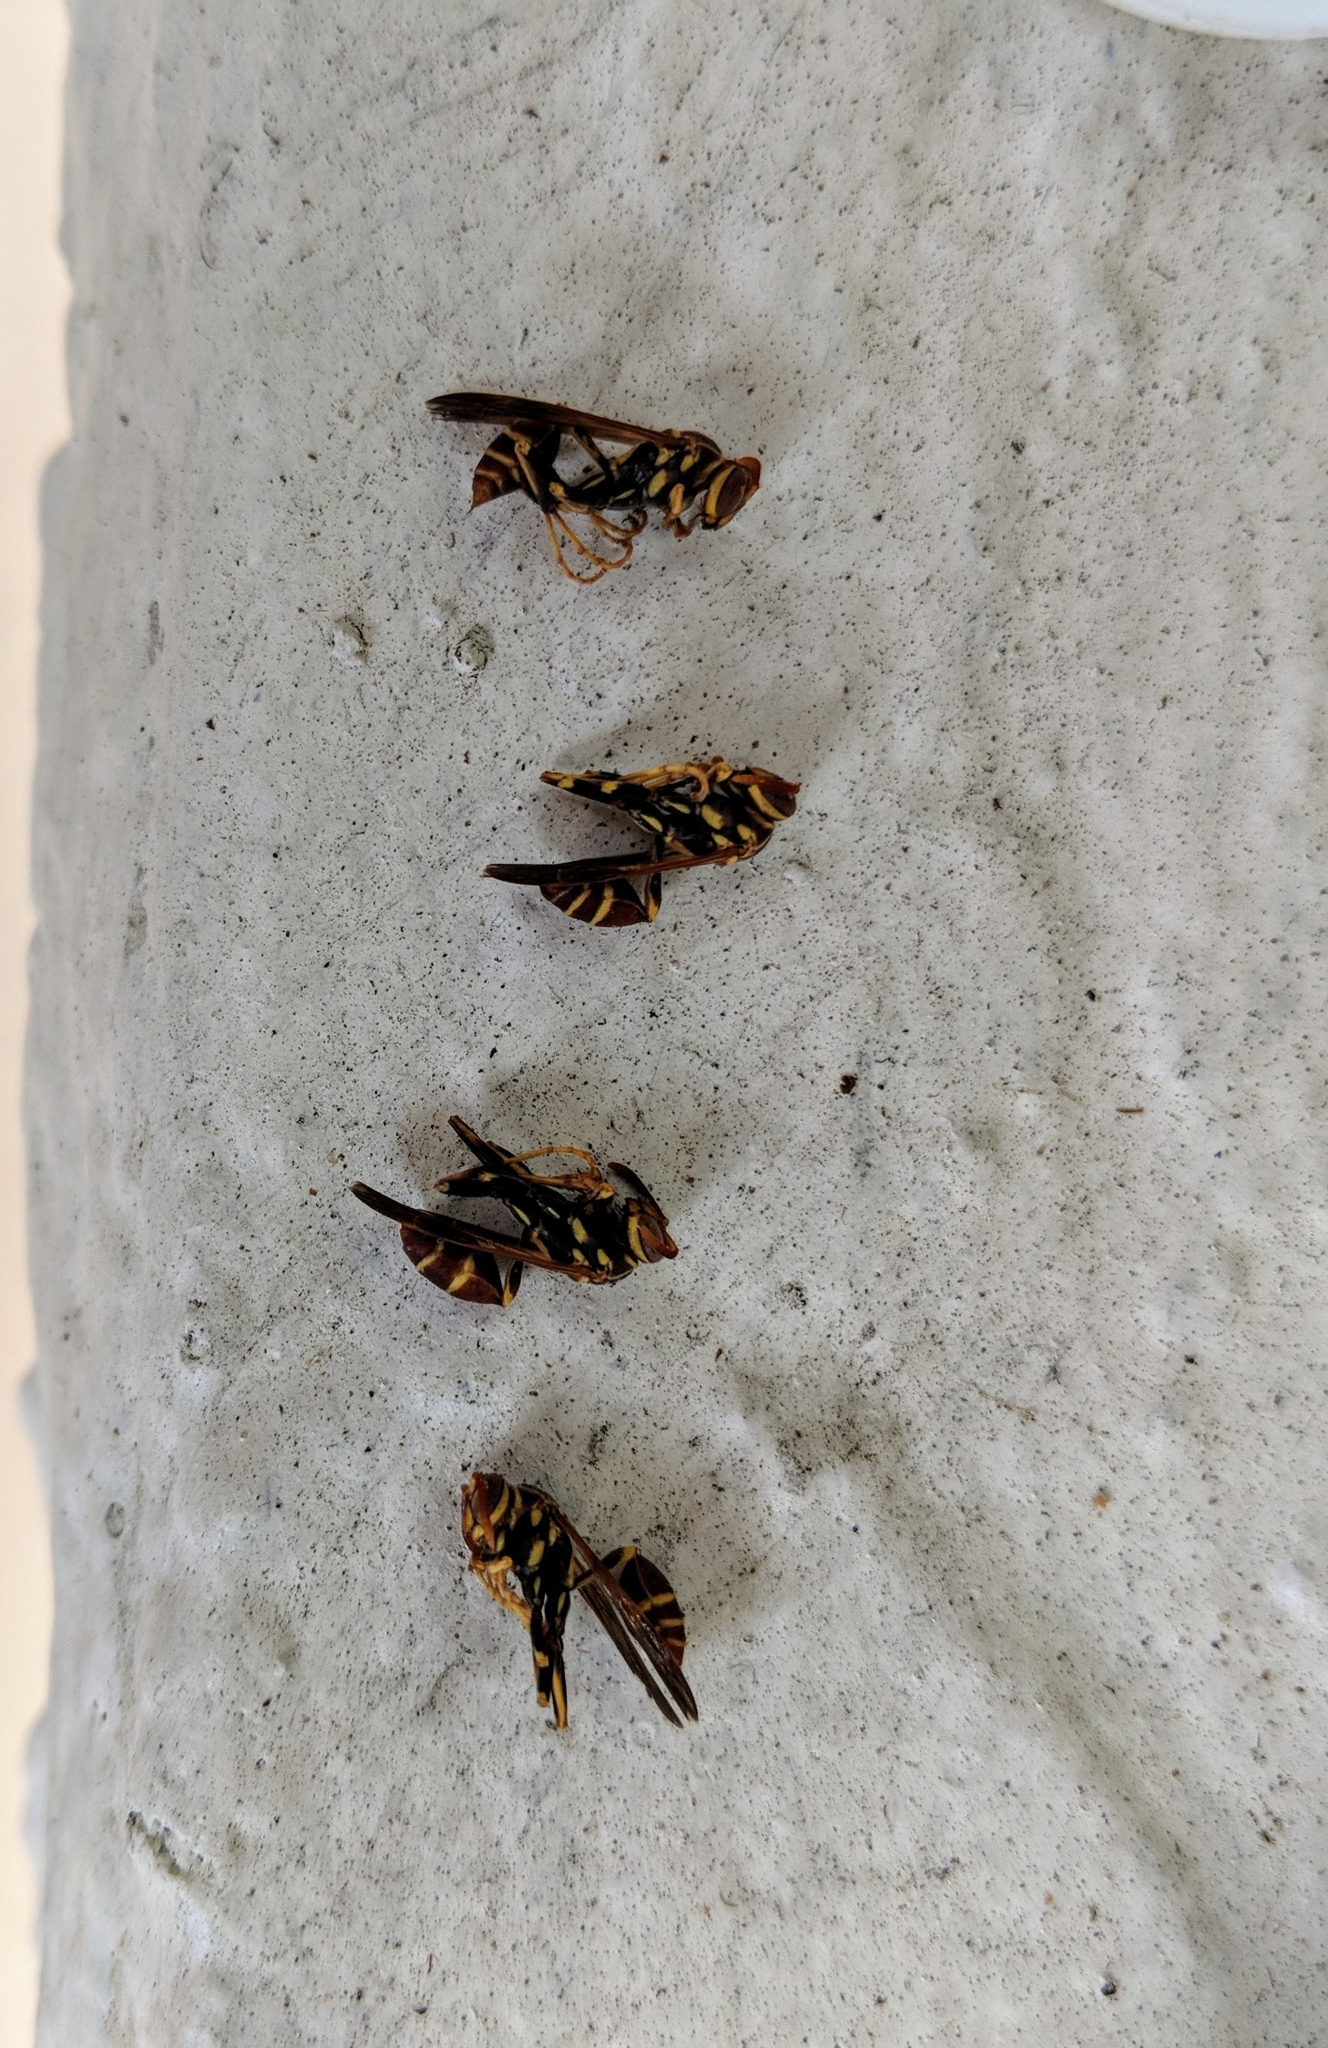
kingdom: Animalia
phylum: Arthropoda
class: Insecta
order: Hymenoptera
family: Vespidae
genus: Mischocyttarus
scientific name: Mischocyttarus mexicanus
